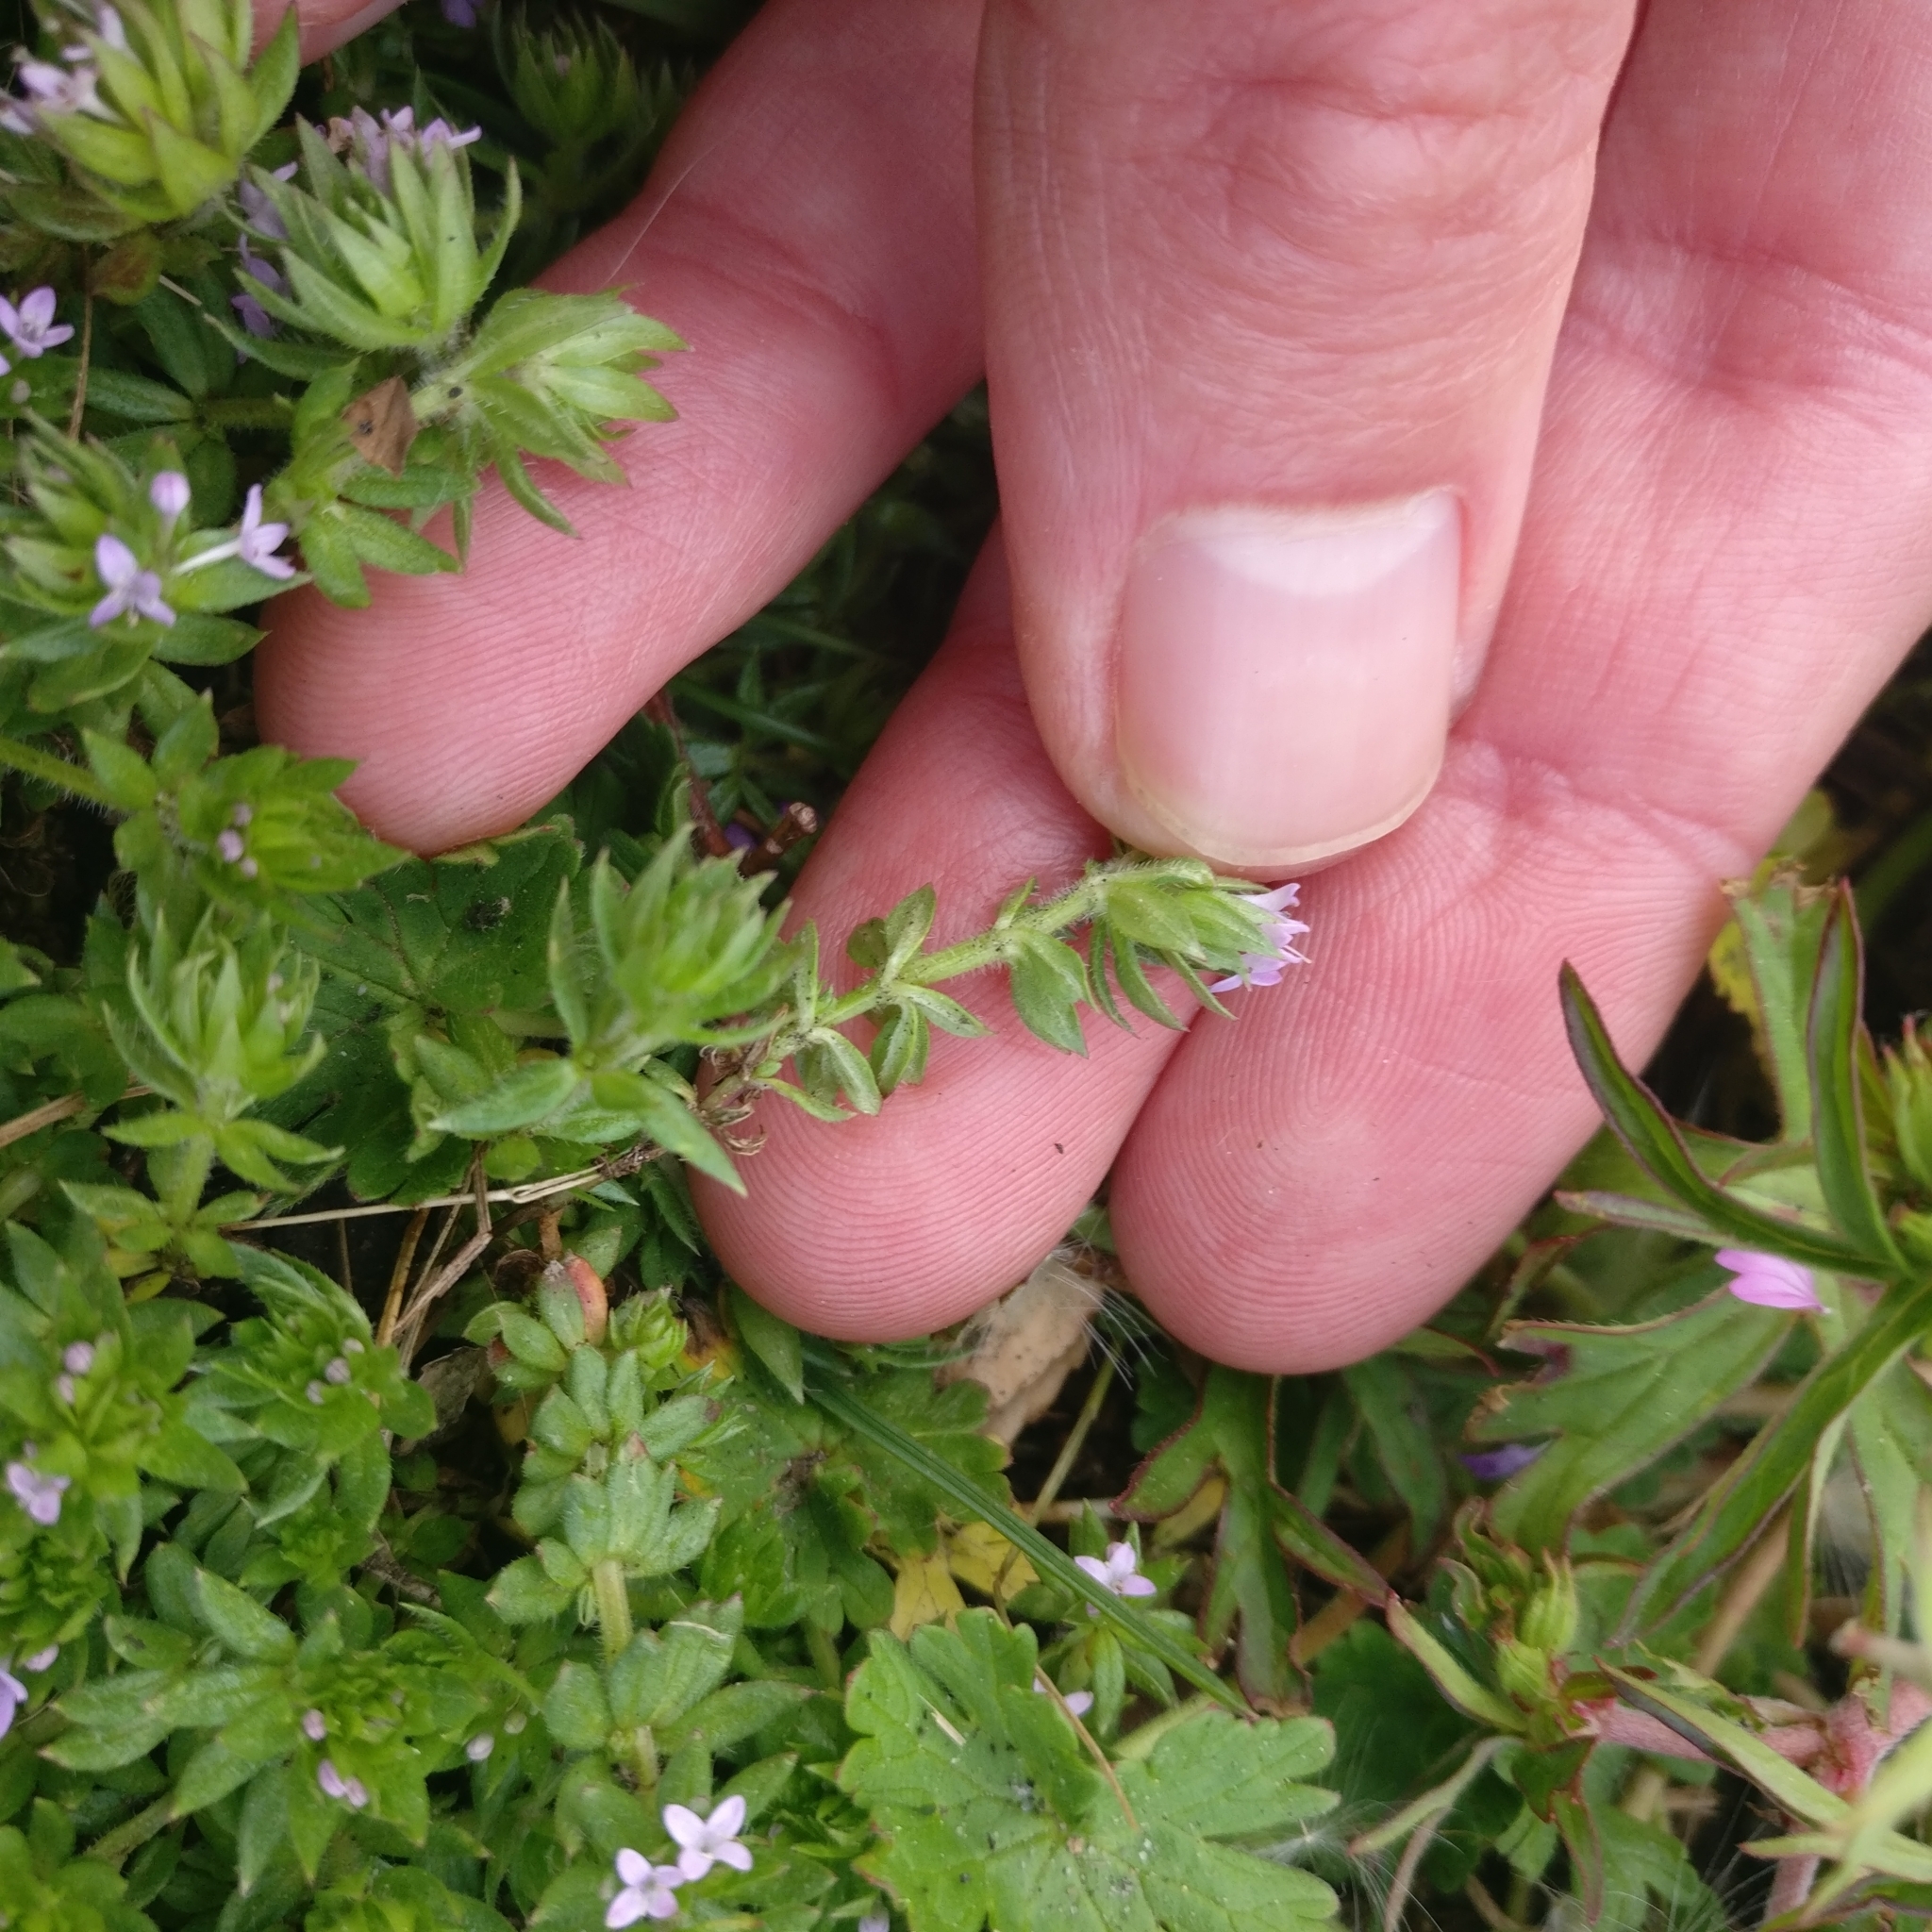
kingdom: Plantae
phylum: Tracheophyta
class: Magnoliopsida
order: Gentianales
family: Rubiaceae
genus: Sherardia
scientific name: Sherardia arvensis
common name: Field madder
